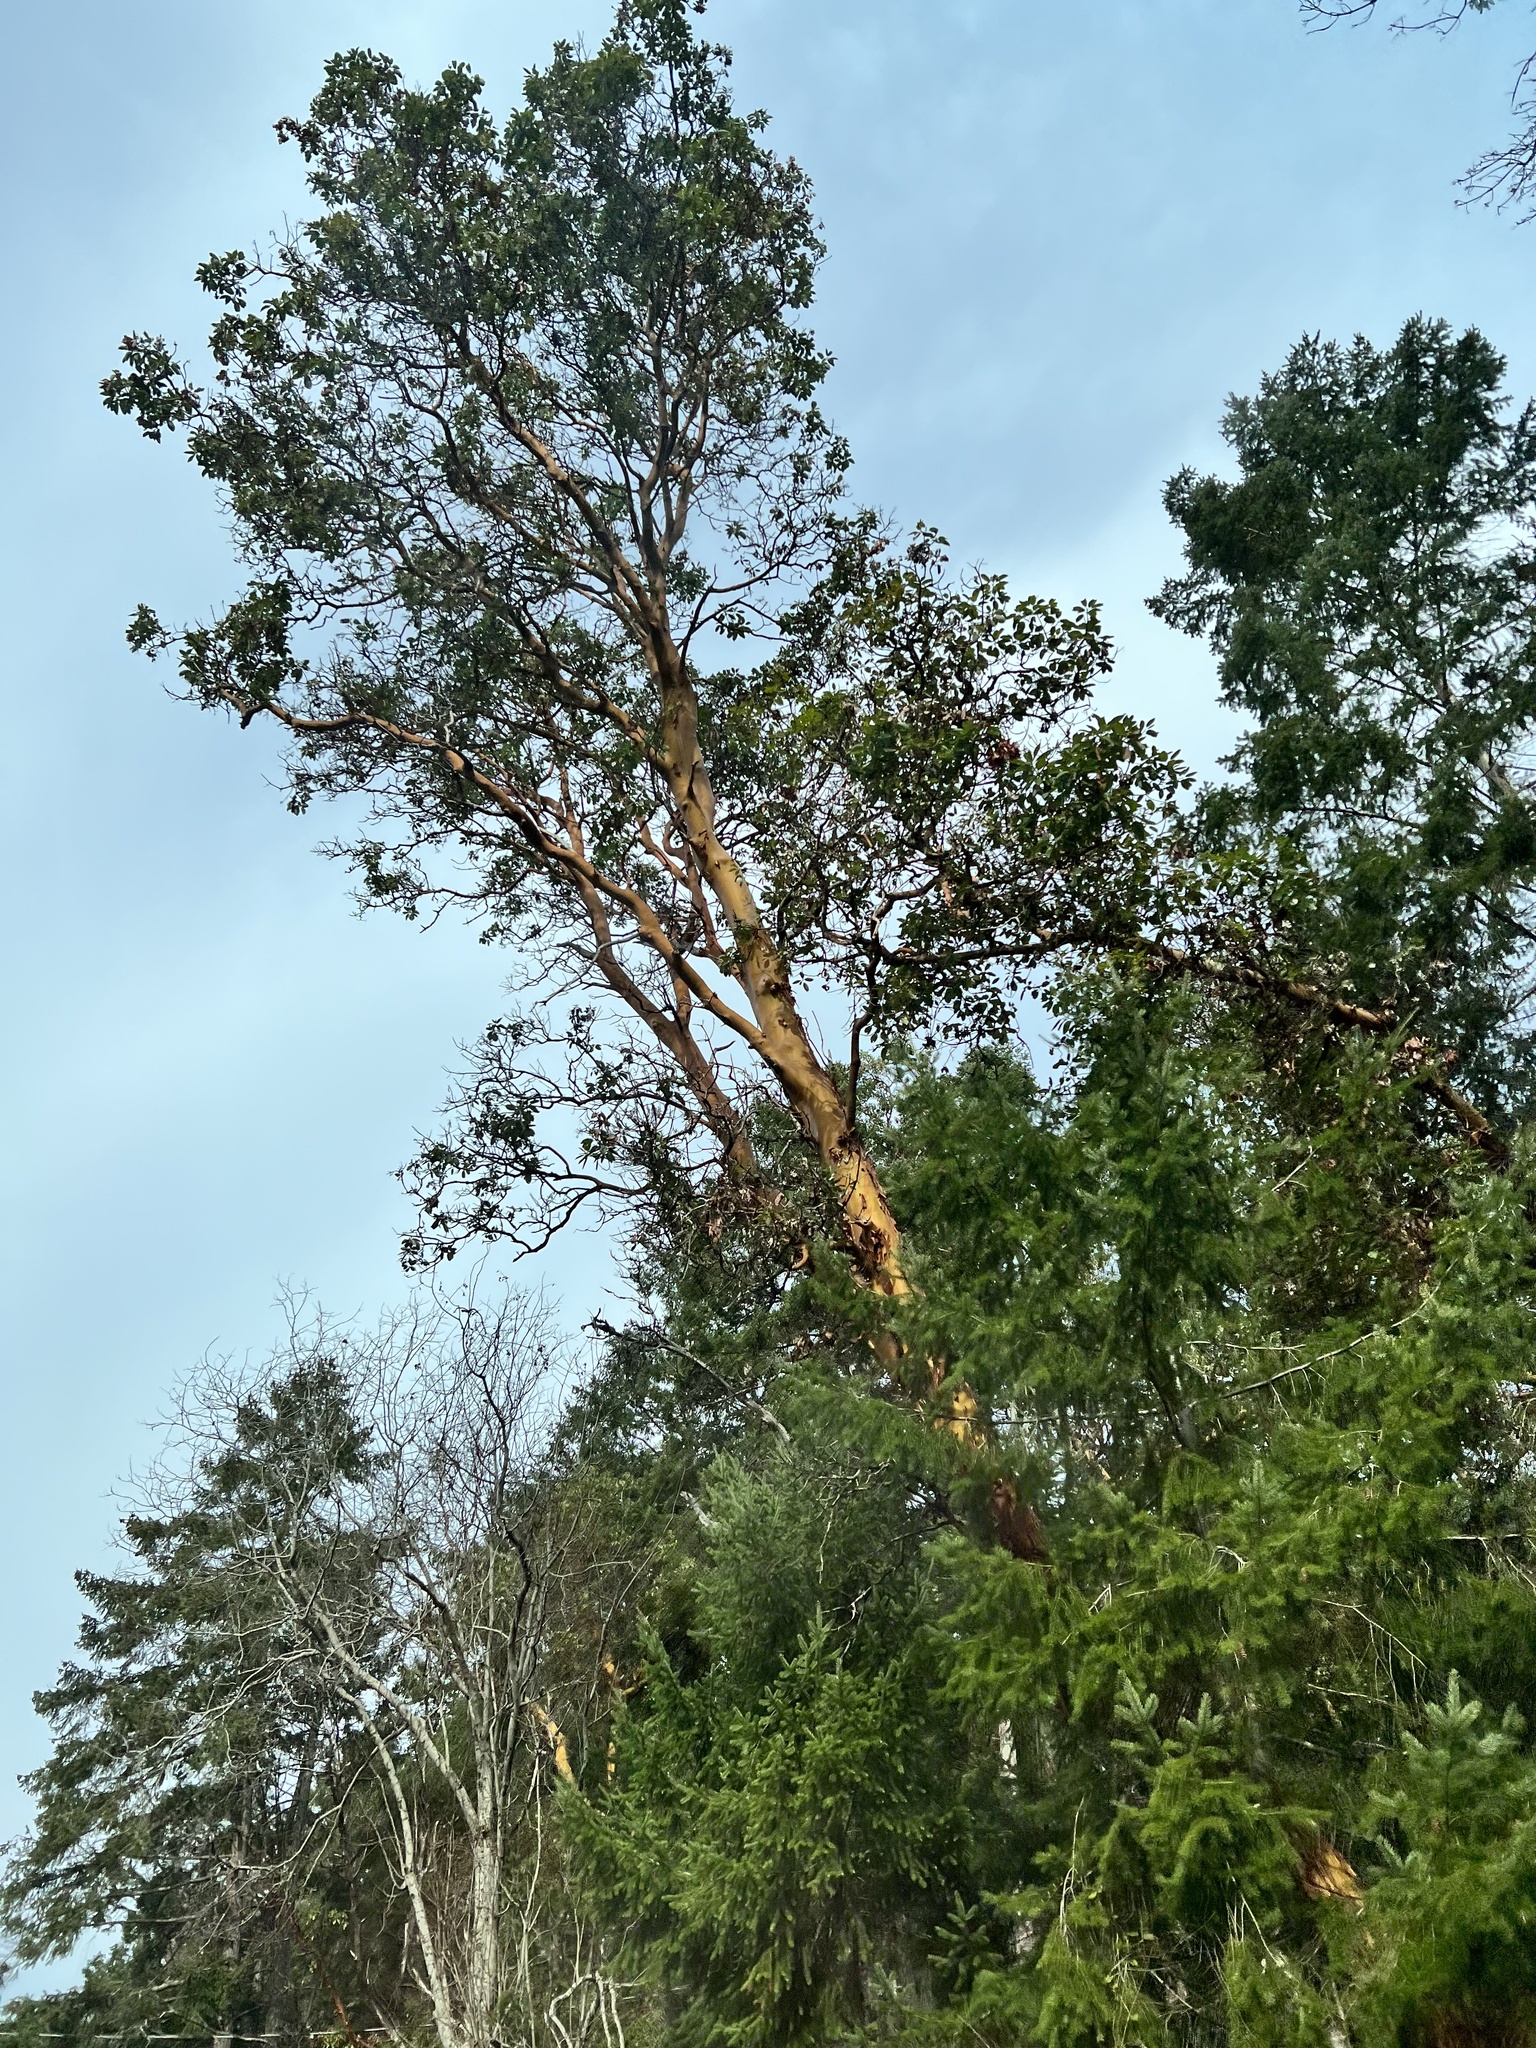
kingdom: Plantae
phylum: Tracheophyta
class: Magnoliopsida
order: Ericales
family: Ericaceae
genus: Arbutus
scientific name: Arbutus menziesii
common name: Pacific madrone
